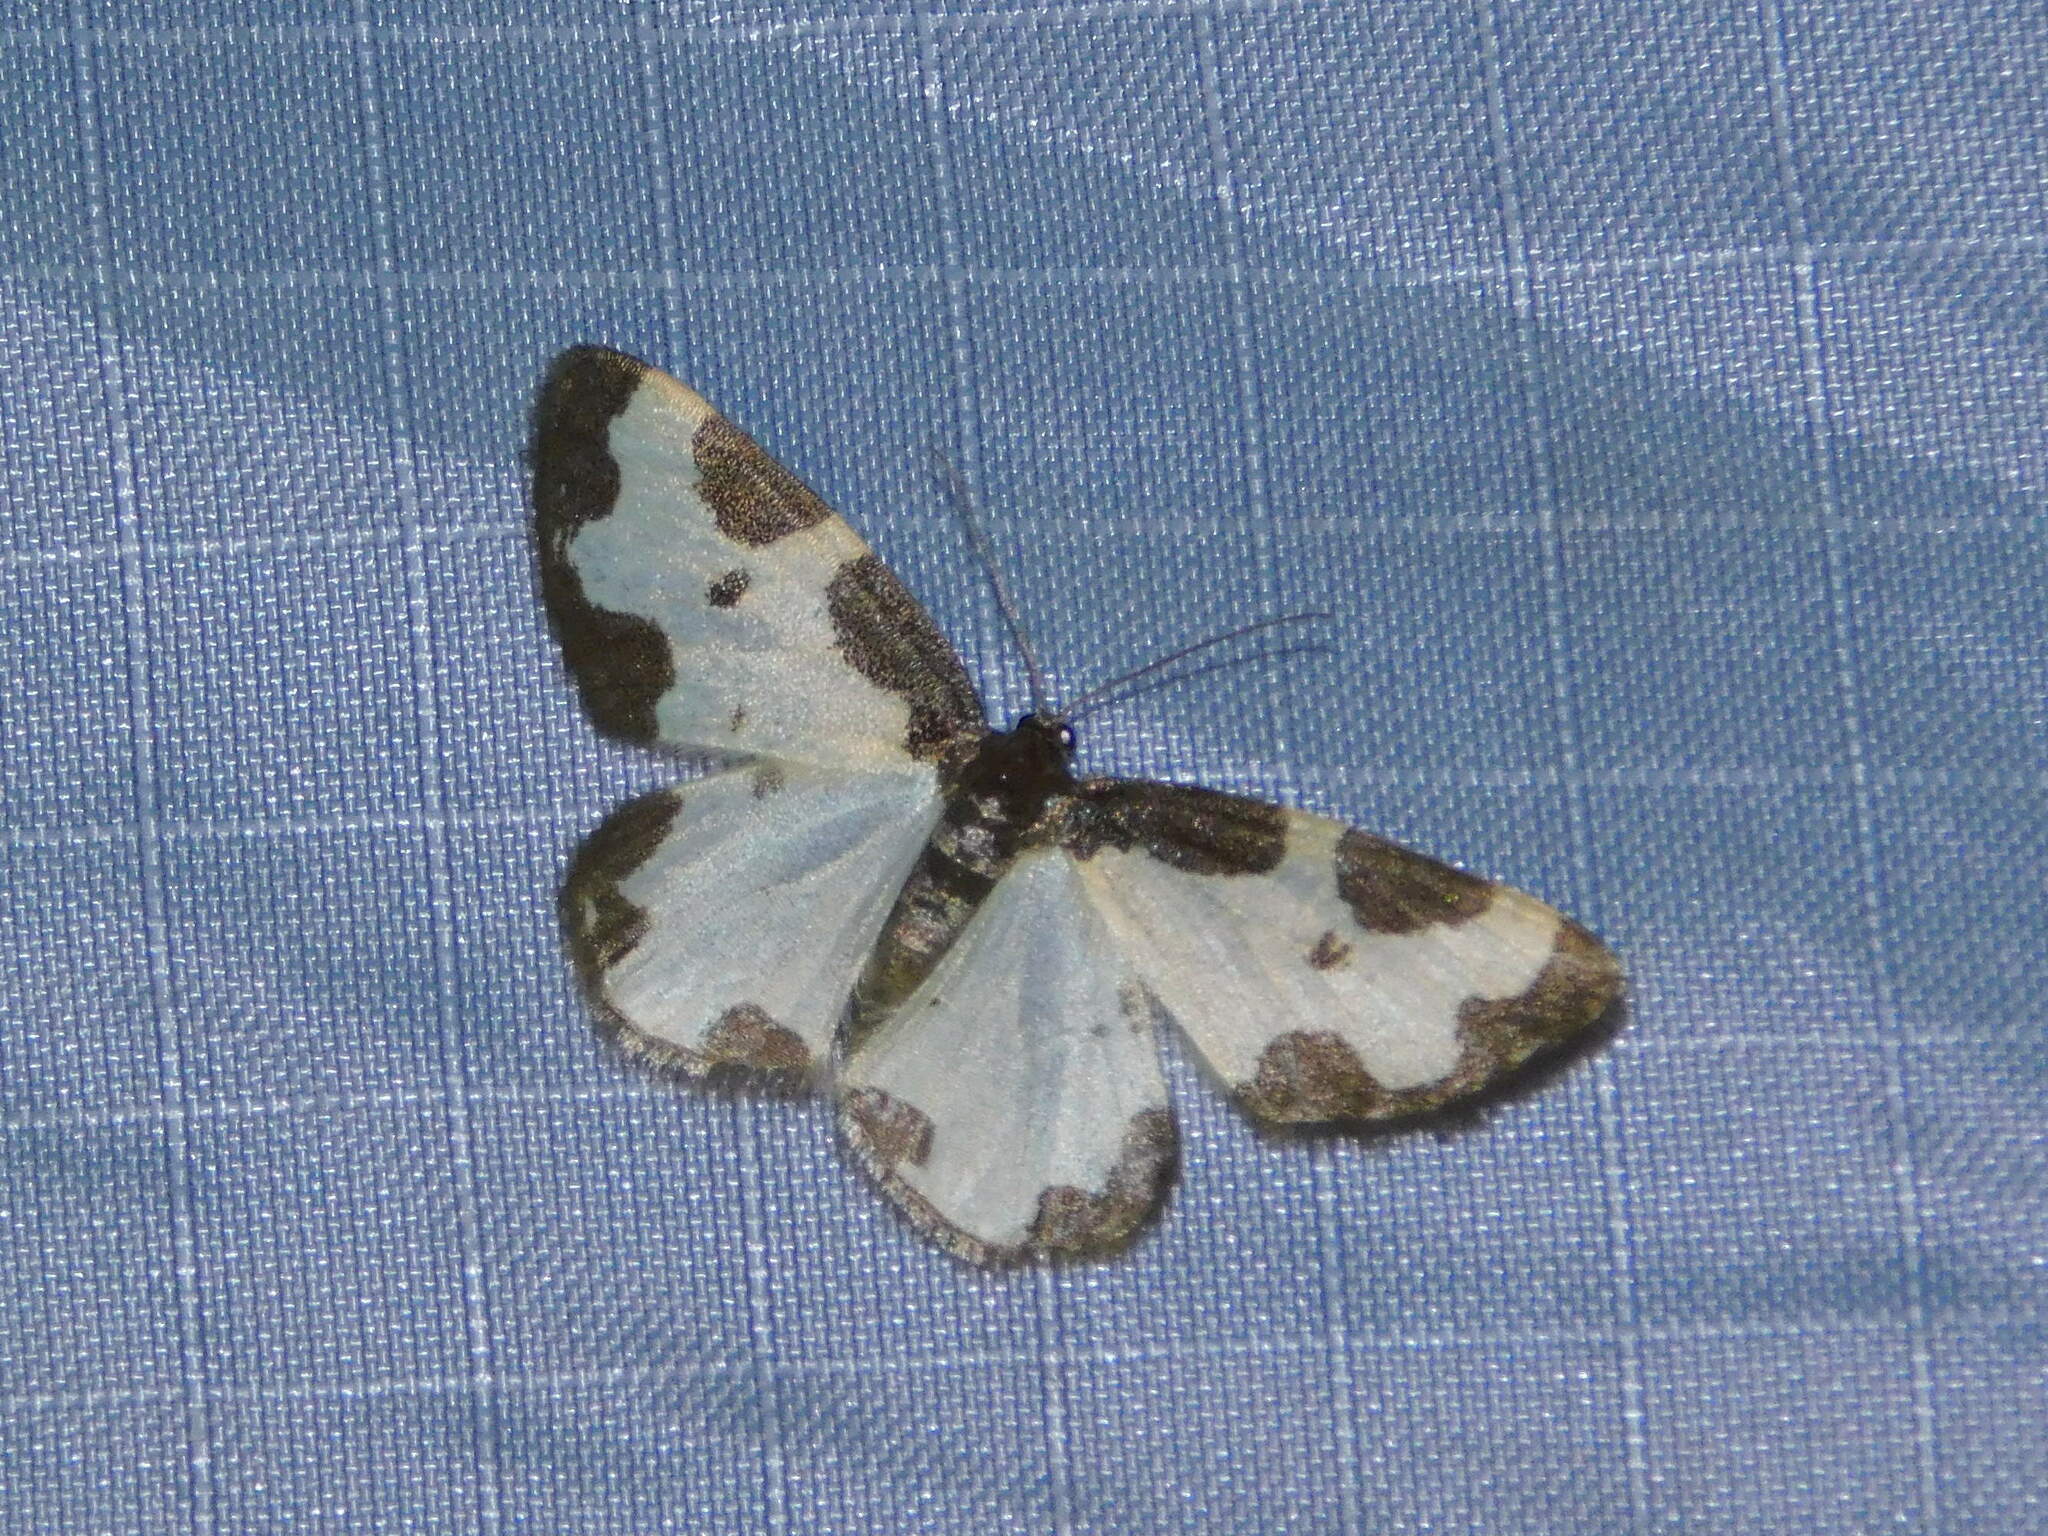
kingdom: Animalia
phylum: Arthropoda
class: Insecta
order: Lepidoptera
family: Geometridae
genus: Lomaspilis
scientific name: Lomaspilis marginata
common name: Clouded border
